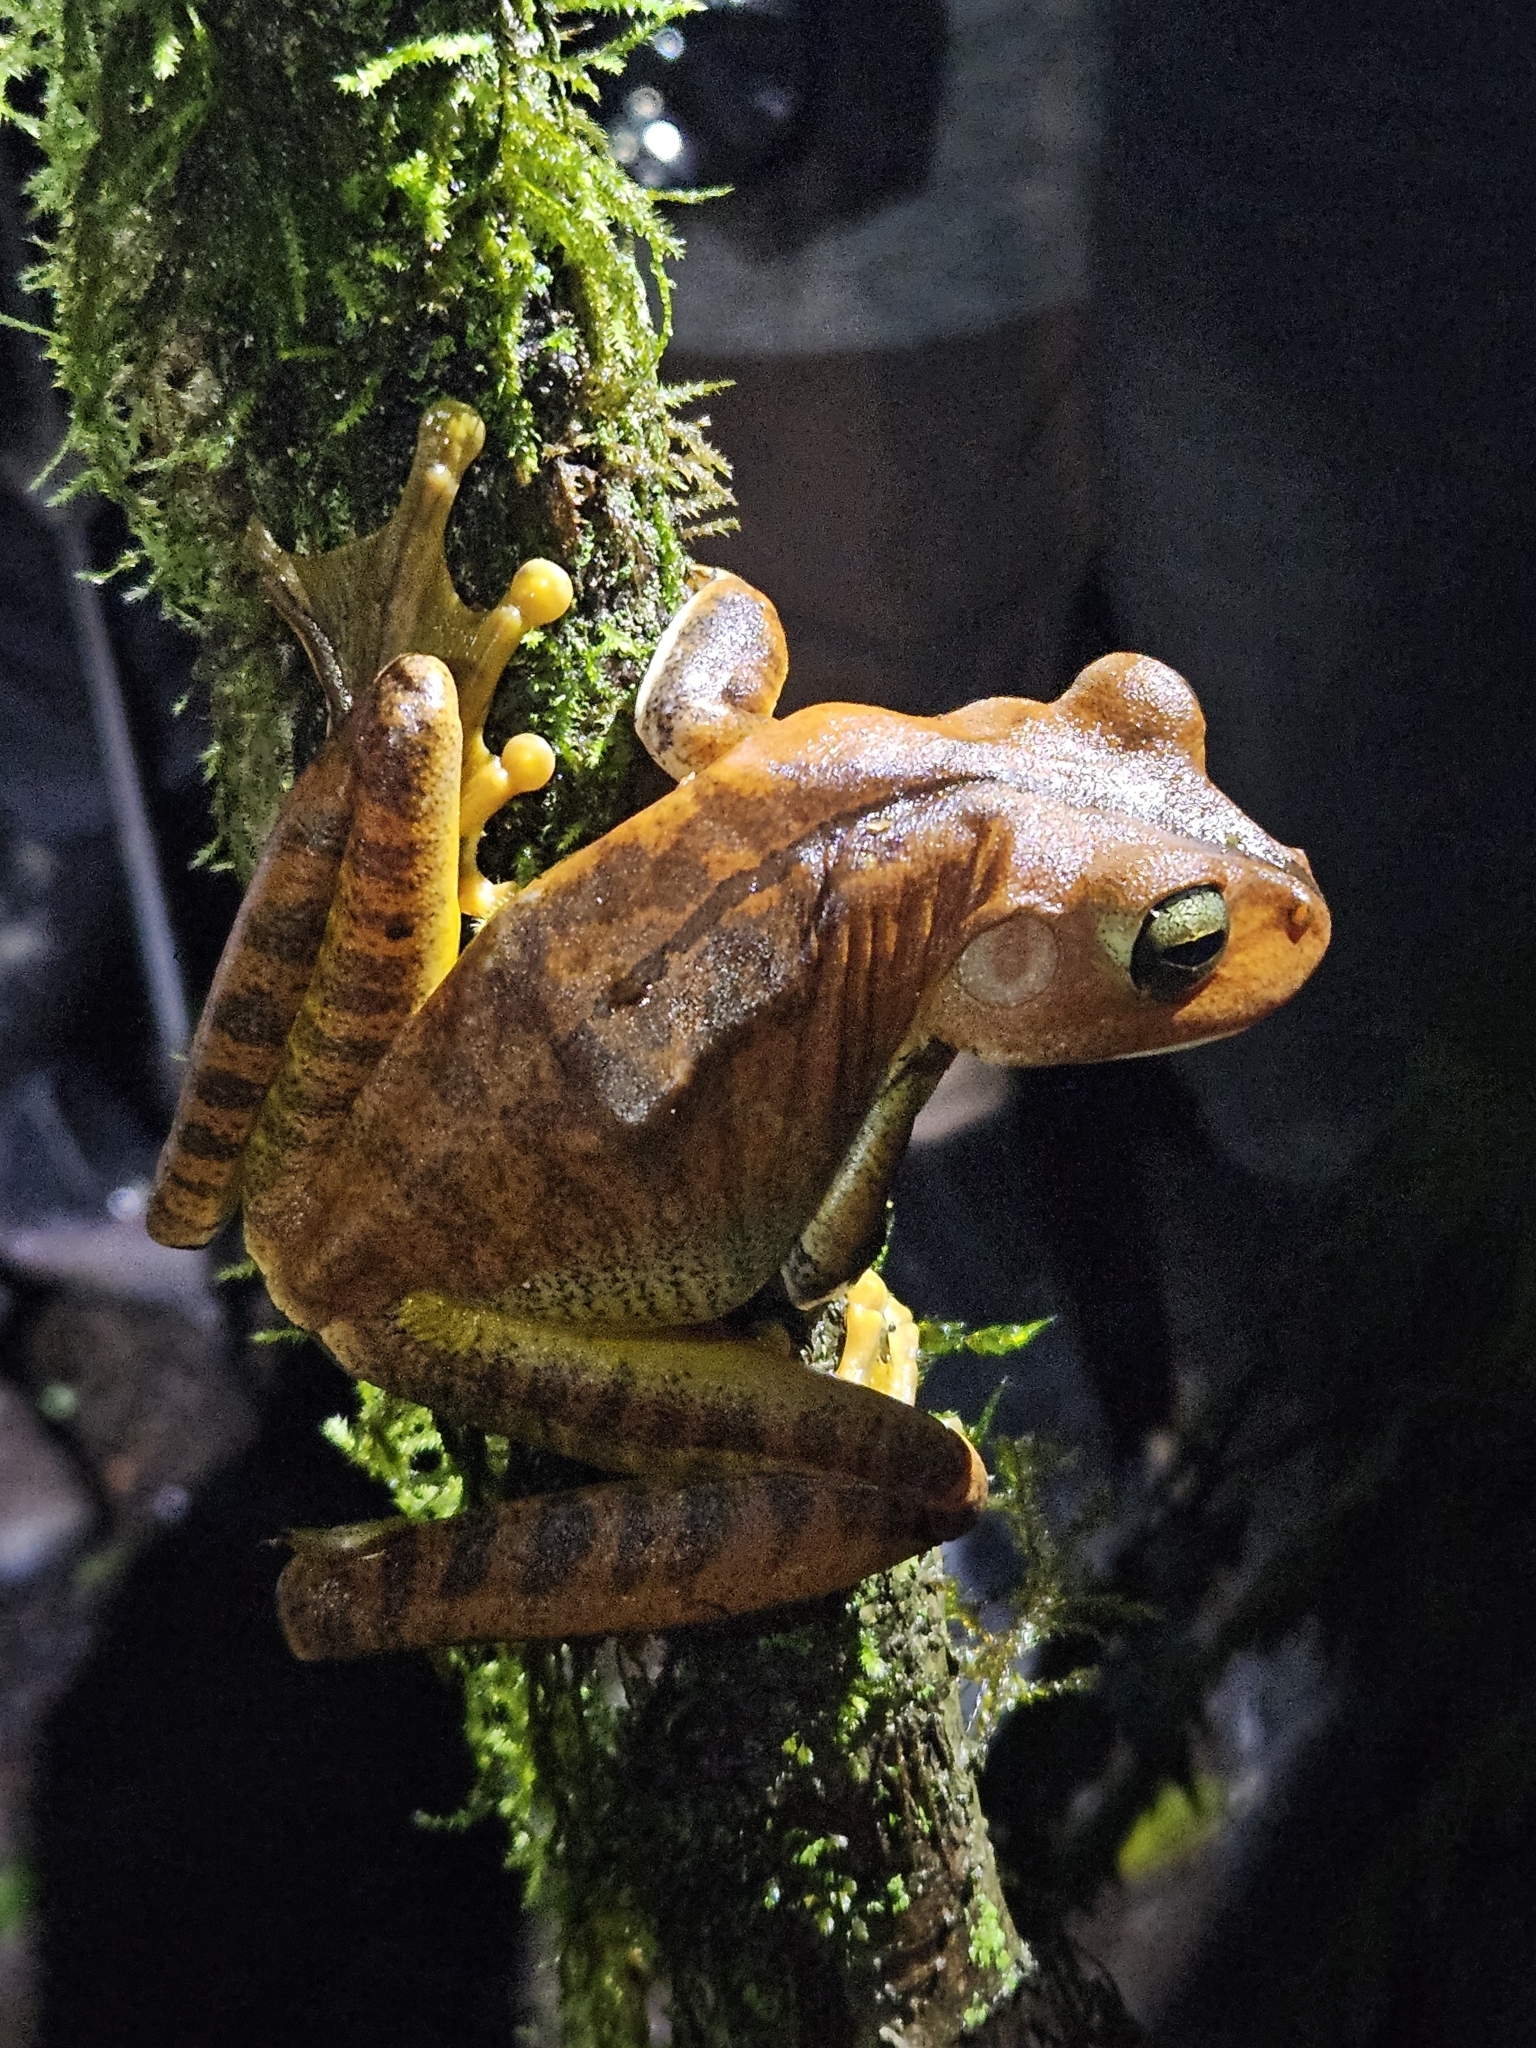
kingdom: Animalia
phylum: Chordata
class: Amphibia
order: Anura
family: Hylidae
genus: Boana
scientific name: Boana faber
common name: Blacksmith tree frog
